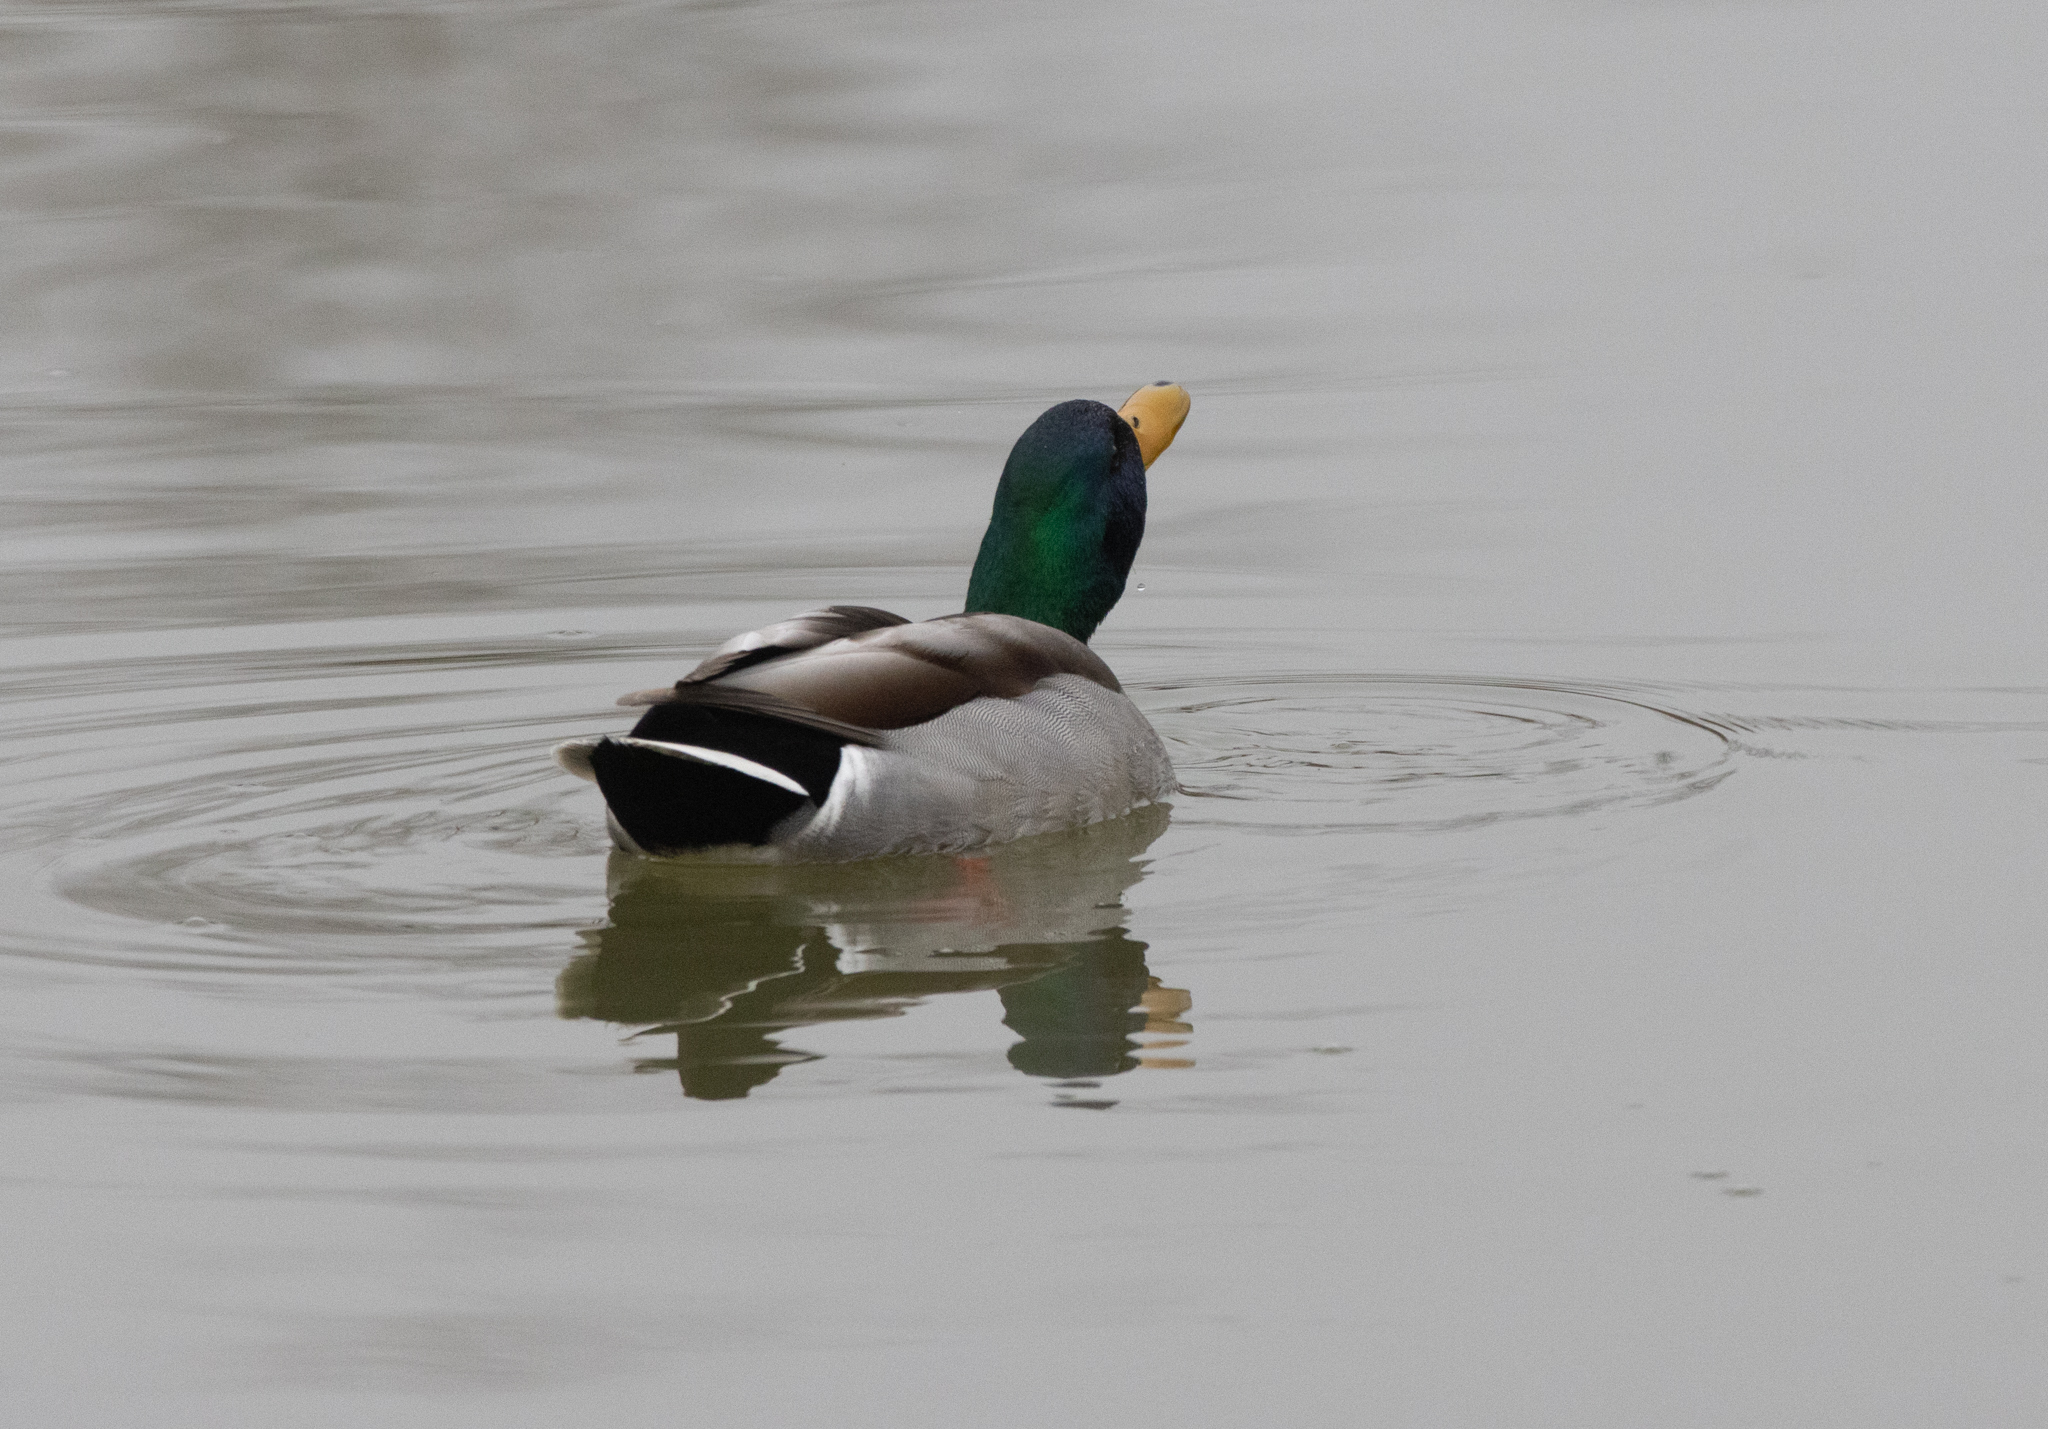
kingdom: Animalia
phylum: Chordata
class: Aves
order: Anseriformes
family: Anatidae
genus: Anas
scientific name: Anas platyrhynchos
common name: Mallard
